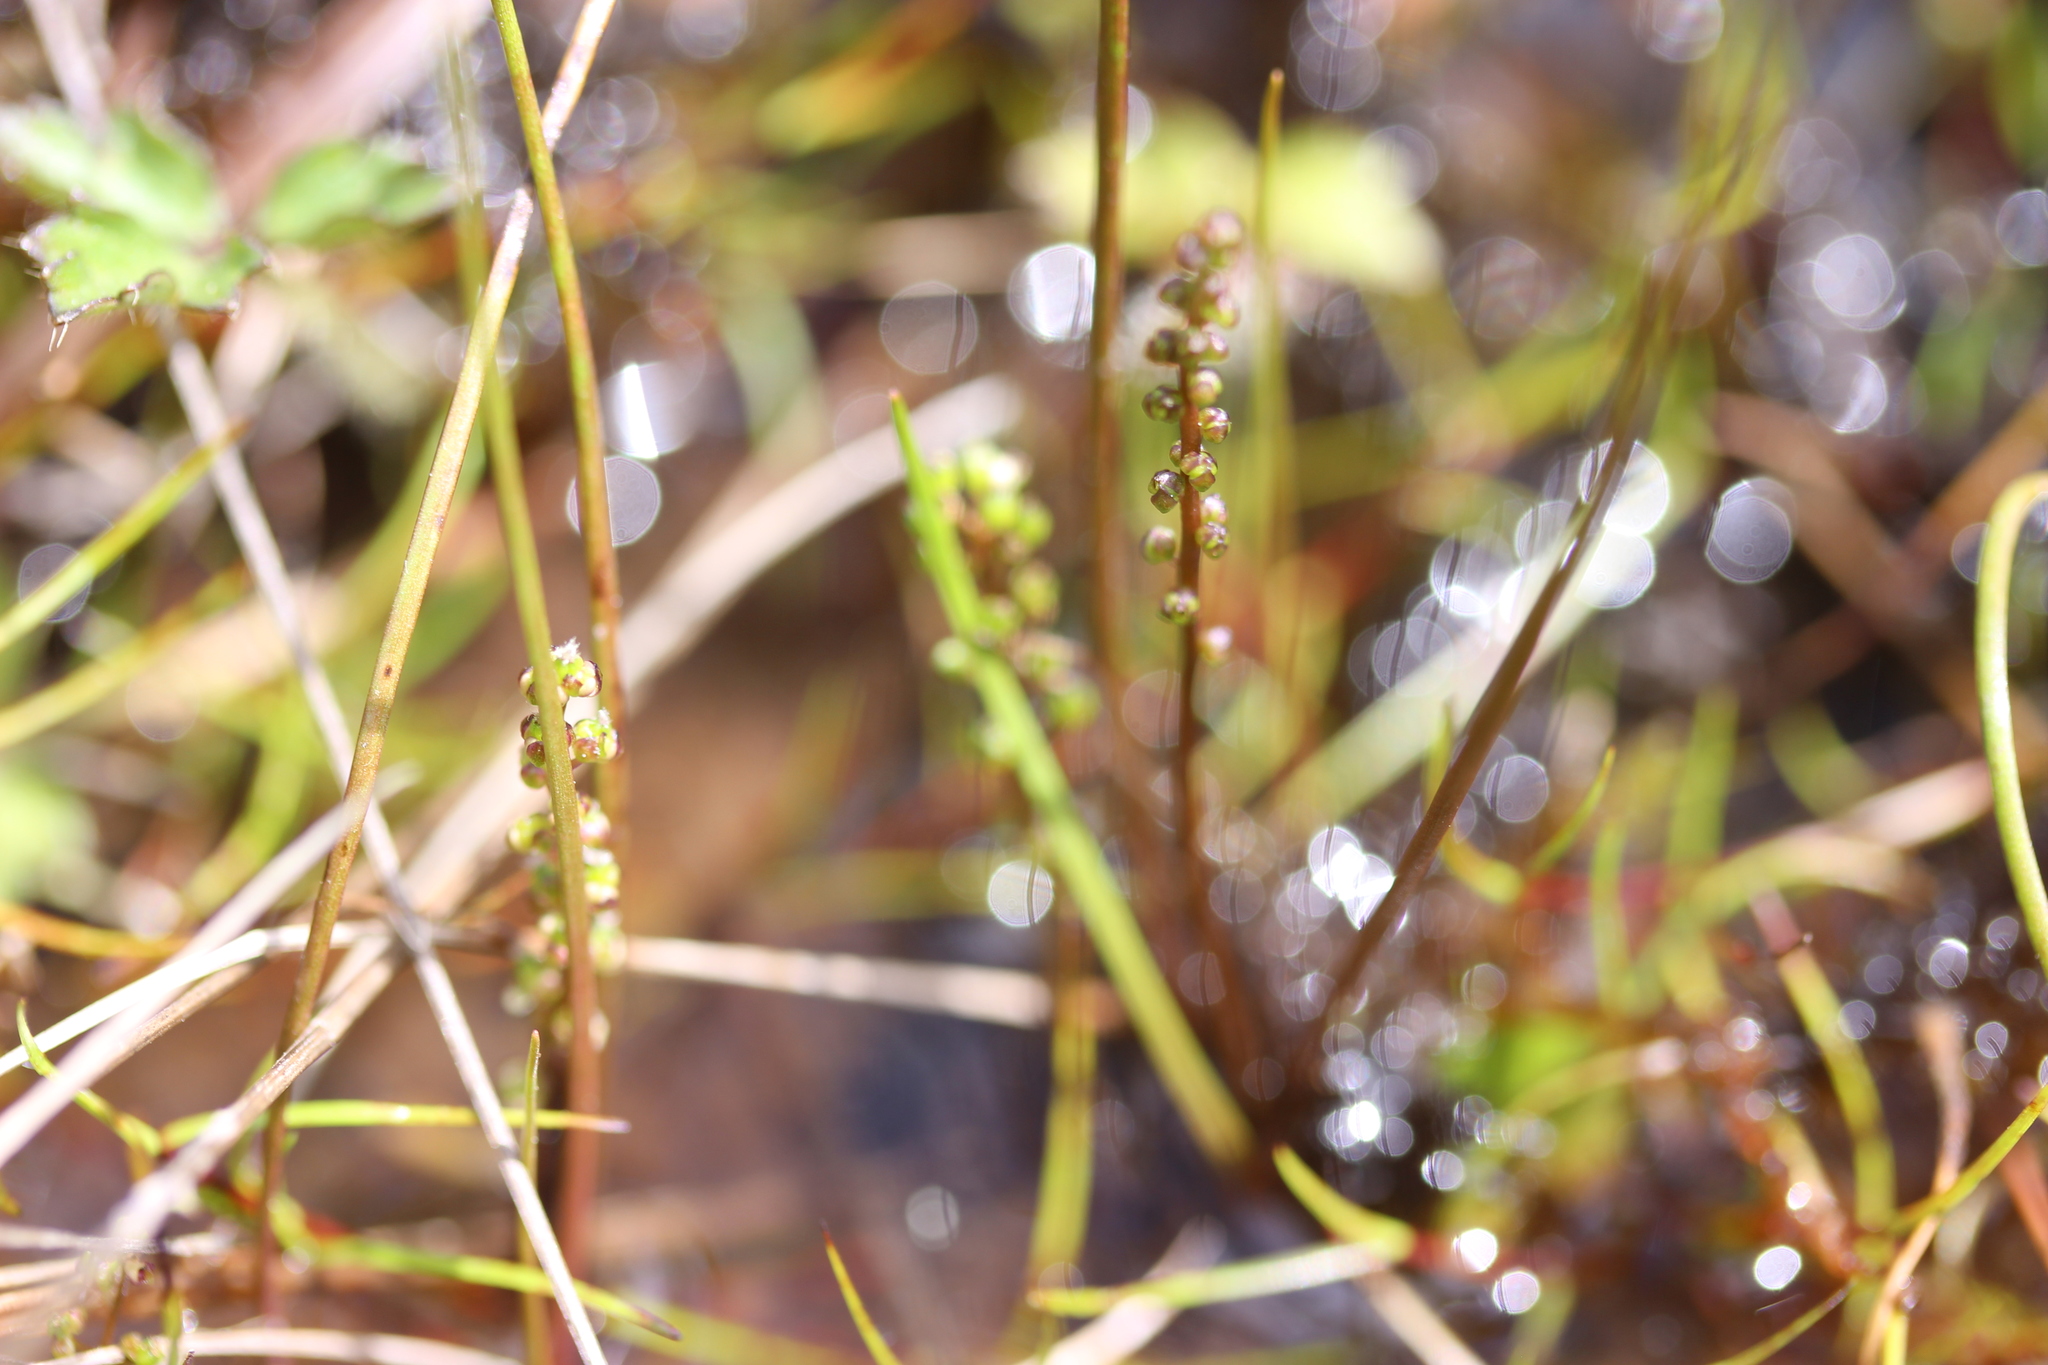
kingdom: Plantae
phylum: Tracheophyta
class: Liliopsida
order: Alismatales
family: Juncaginaceae
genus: Triglochin
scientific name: Triglochin striata
